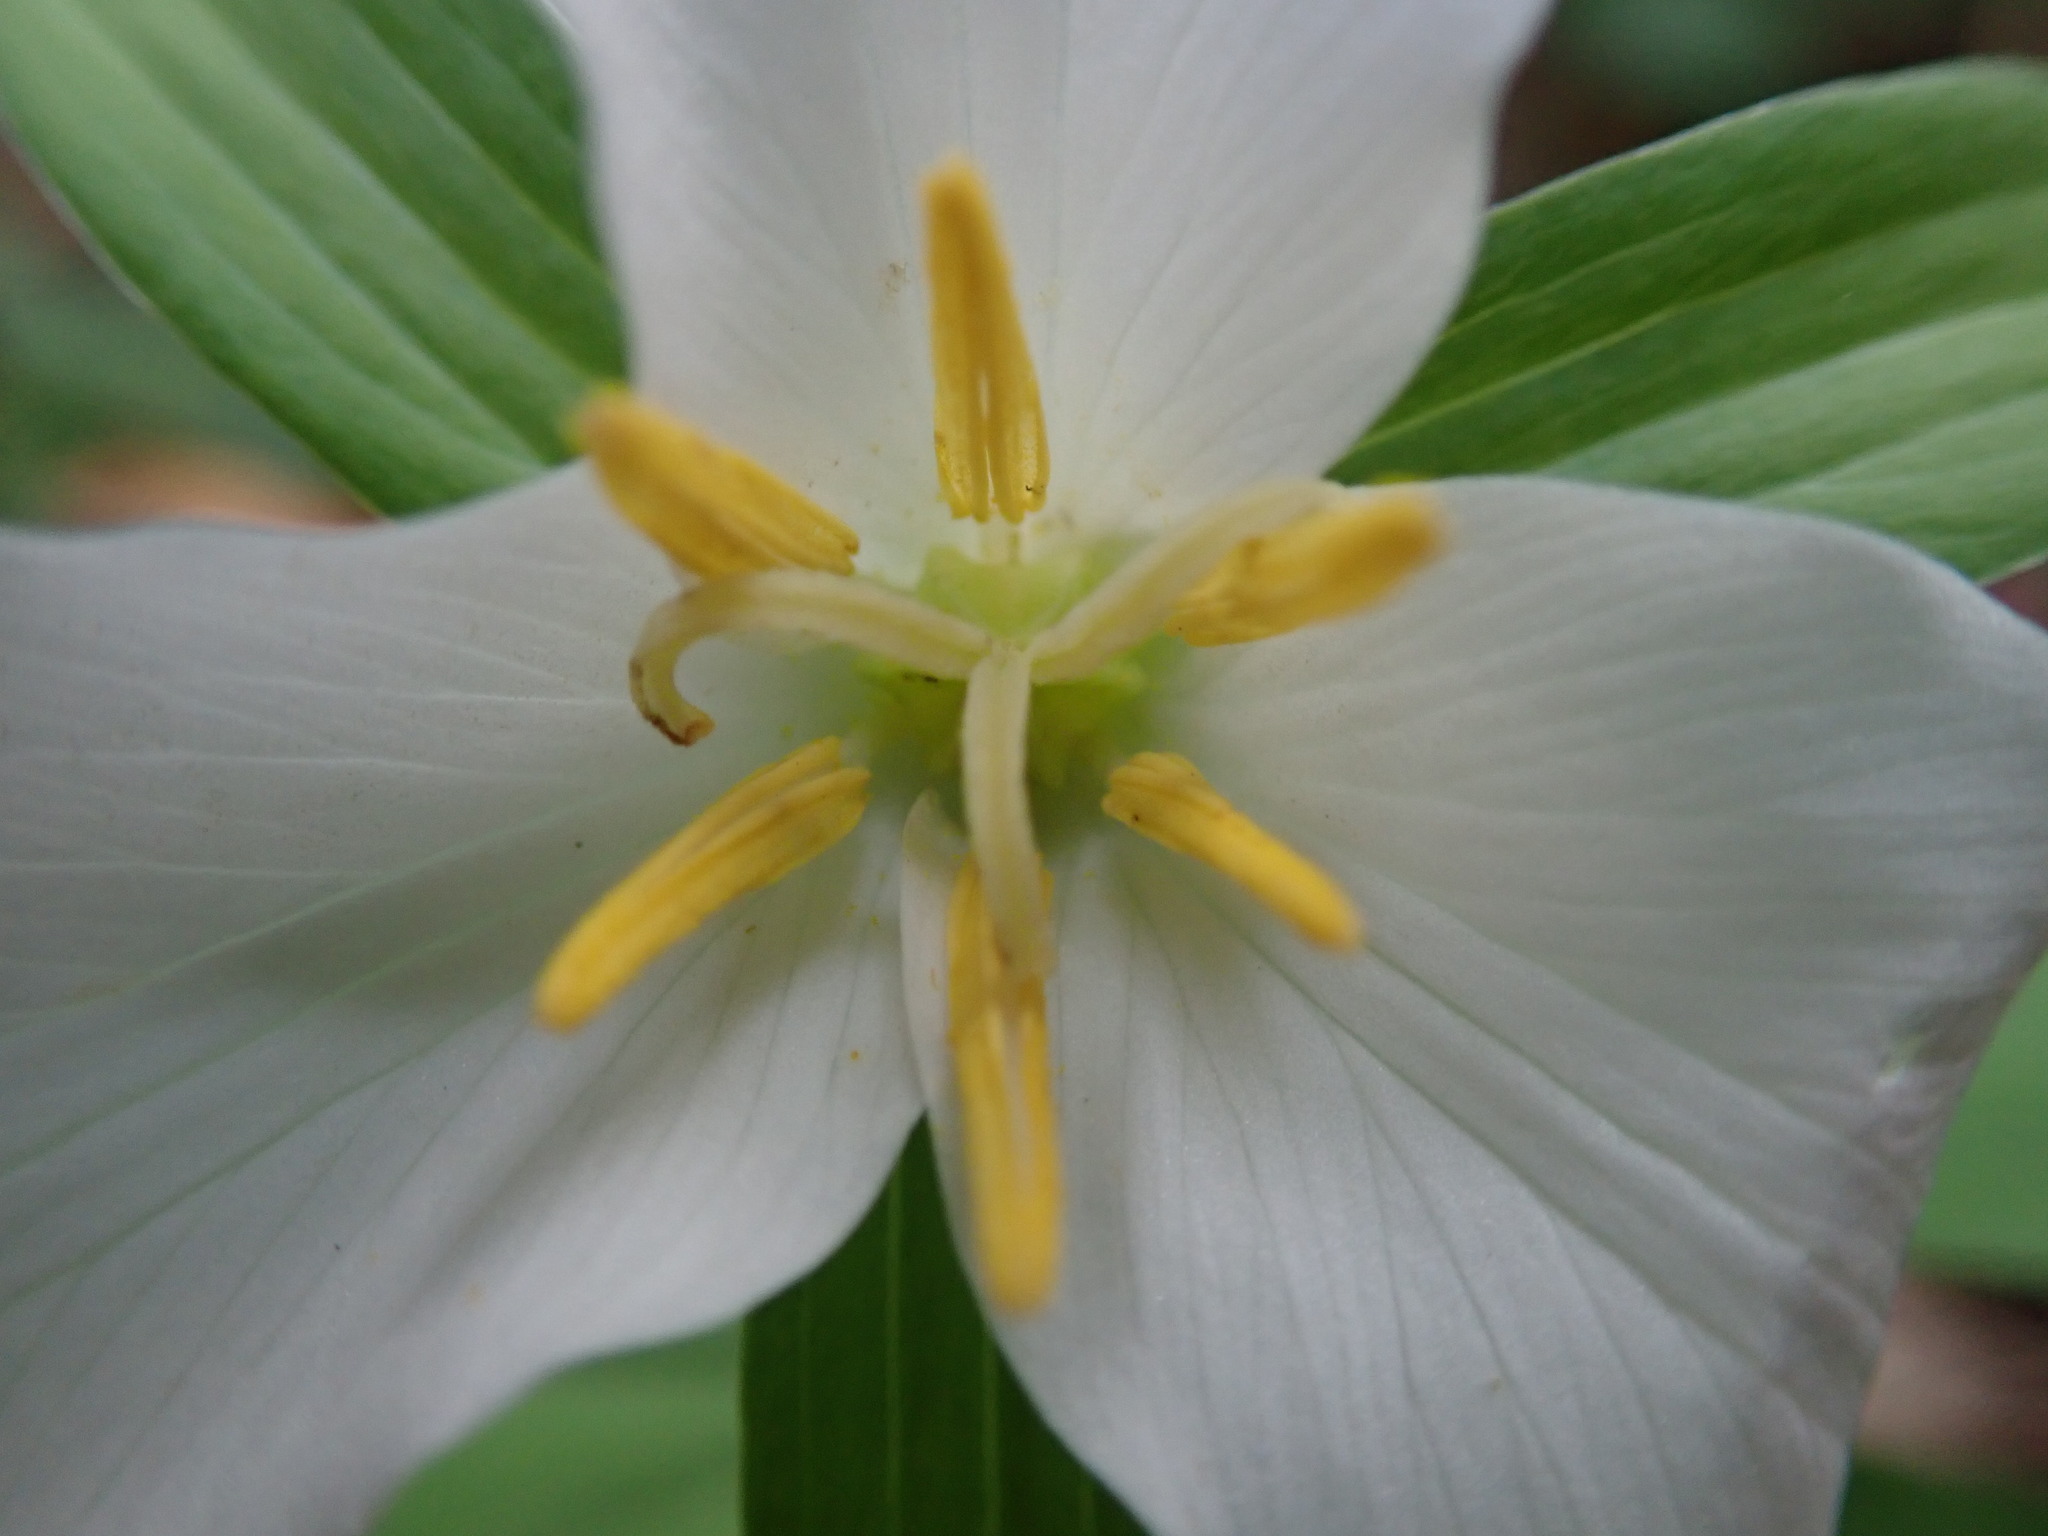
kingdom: Plantae
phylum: Tracheophyta
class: Liliopsida
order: Liliales
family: Melanthiaceae
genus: Trillium
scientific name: Trillium ovatum
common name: Pacific trillium
